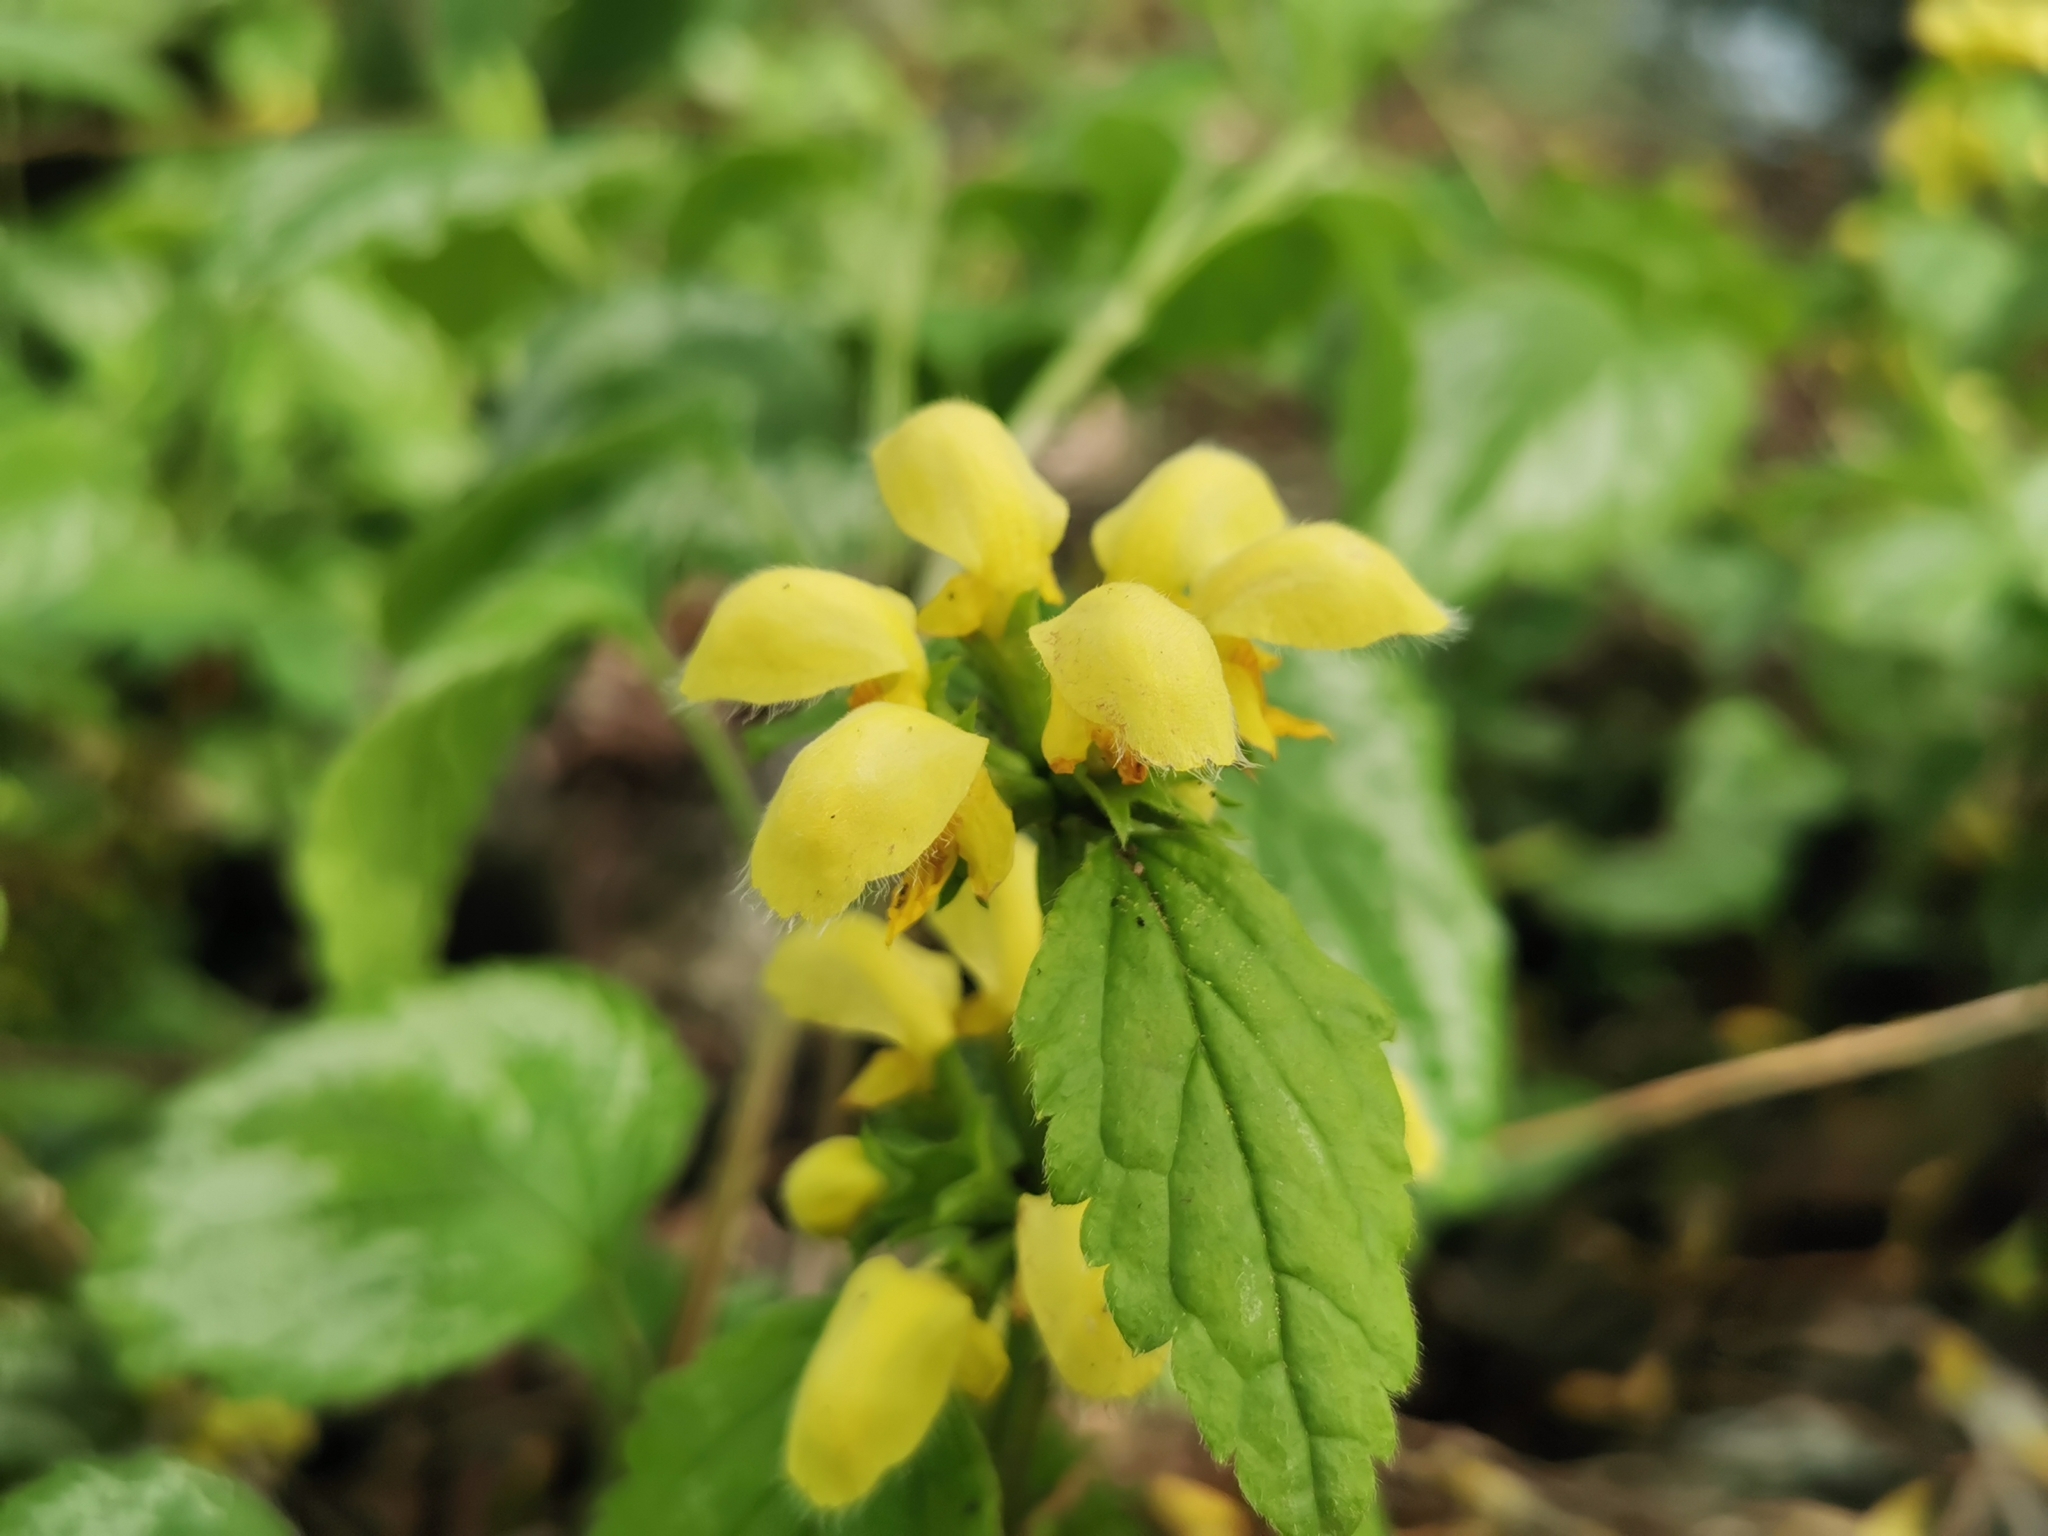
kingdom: Plantae
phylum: Tracheophyta
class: Magnoliopsida
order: Lamiales
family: Lamiaceae
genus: Lamium
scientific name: Lamium galeobdolon
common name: Yellow archangel
